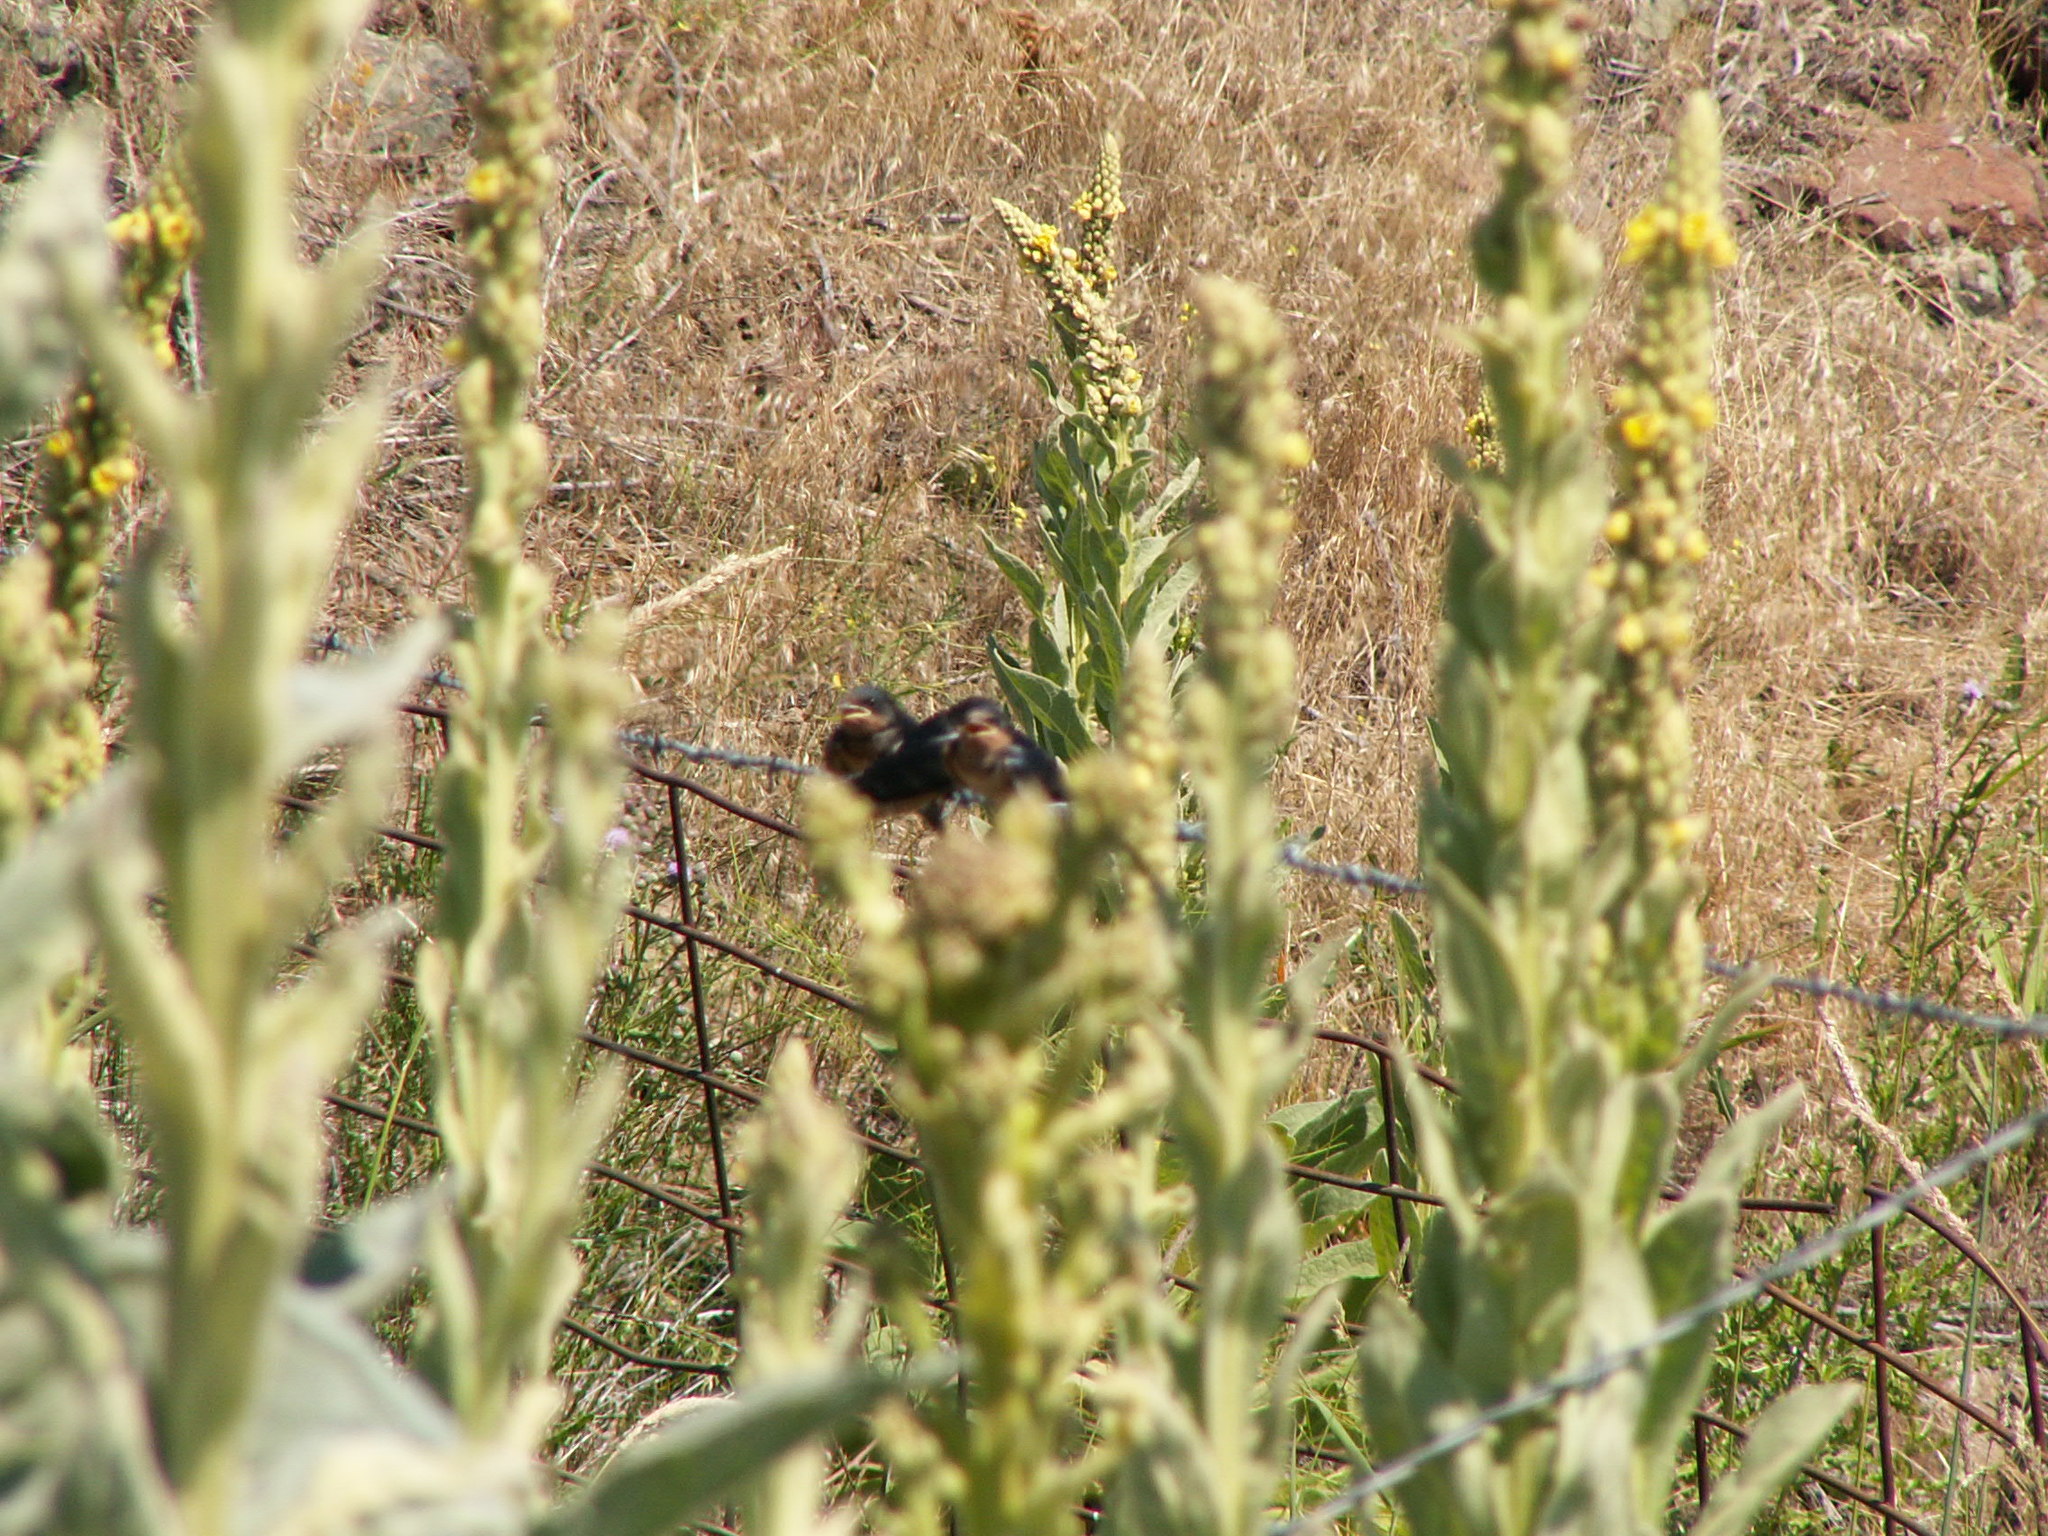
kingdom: Animalia
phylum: Chordata
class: Aves
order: Passeriformes
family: Hirundinidae
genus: Hirundo
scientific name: Hirundo rustica
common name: Barn swallow
